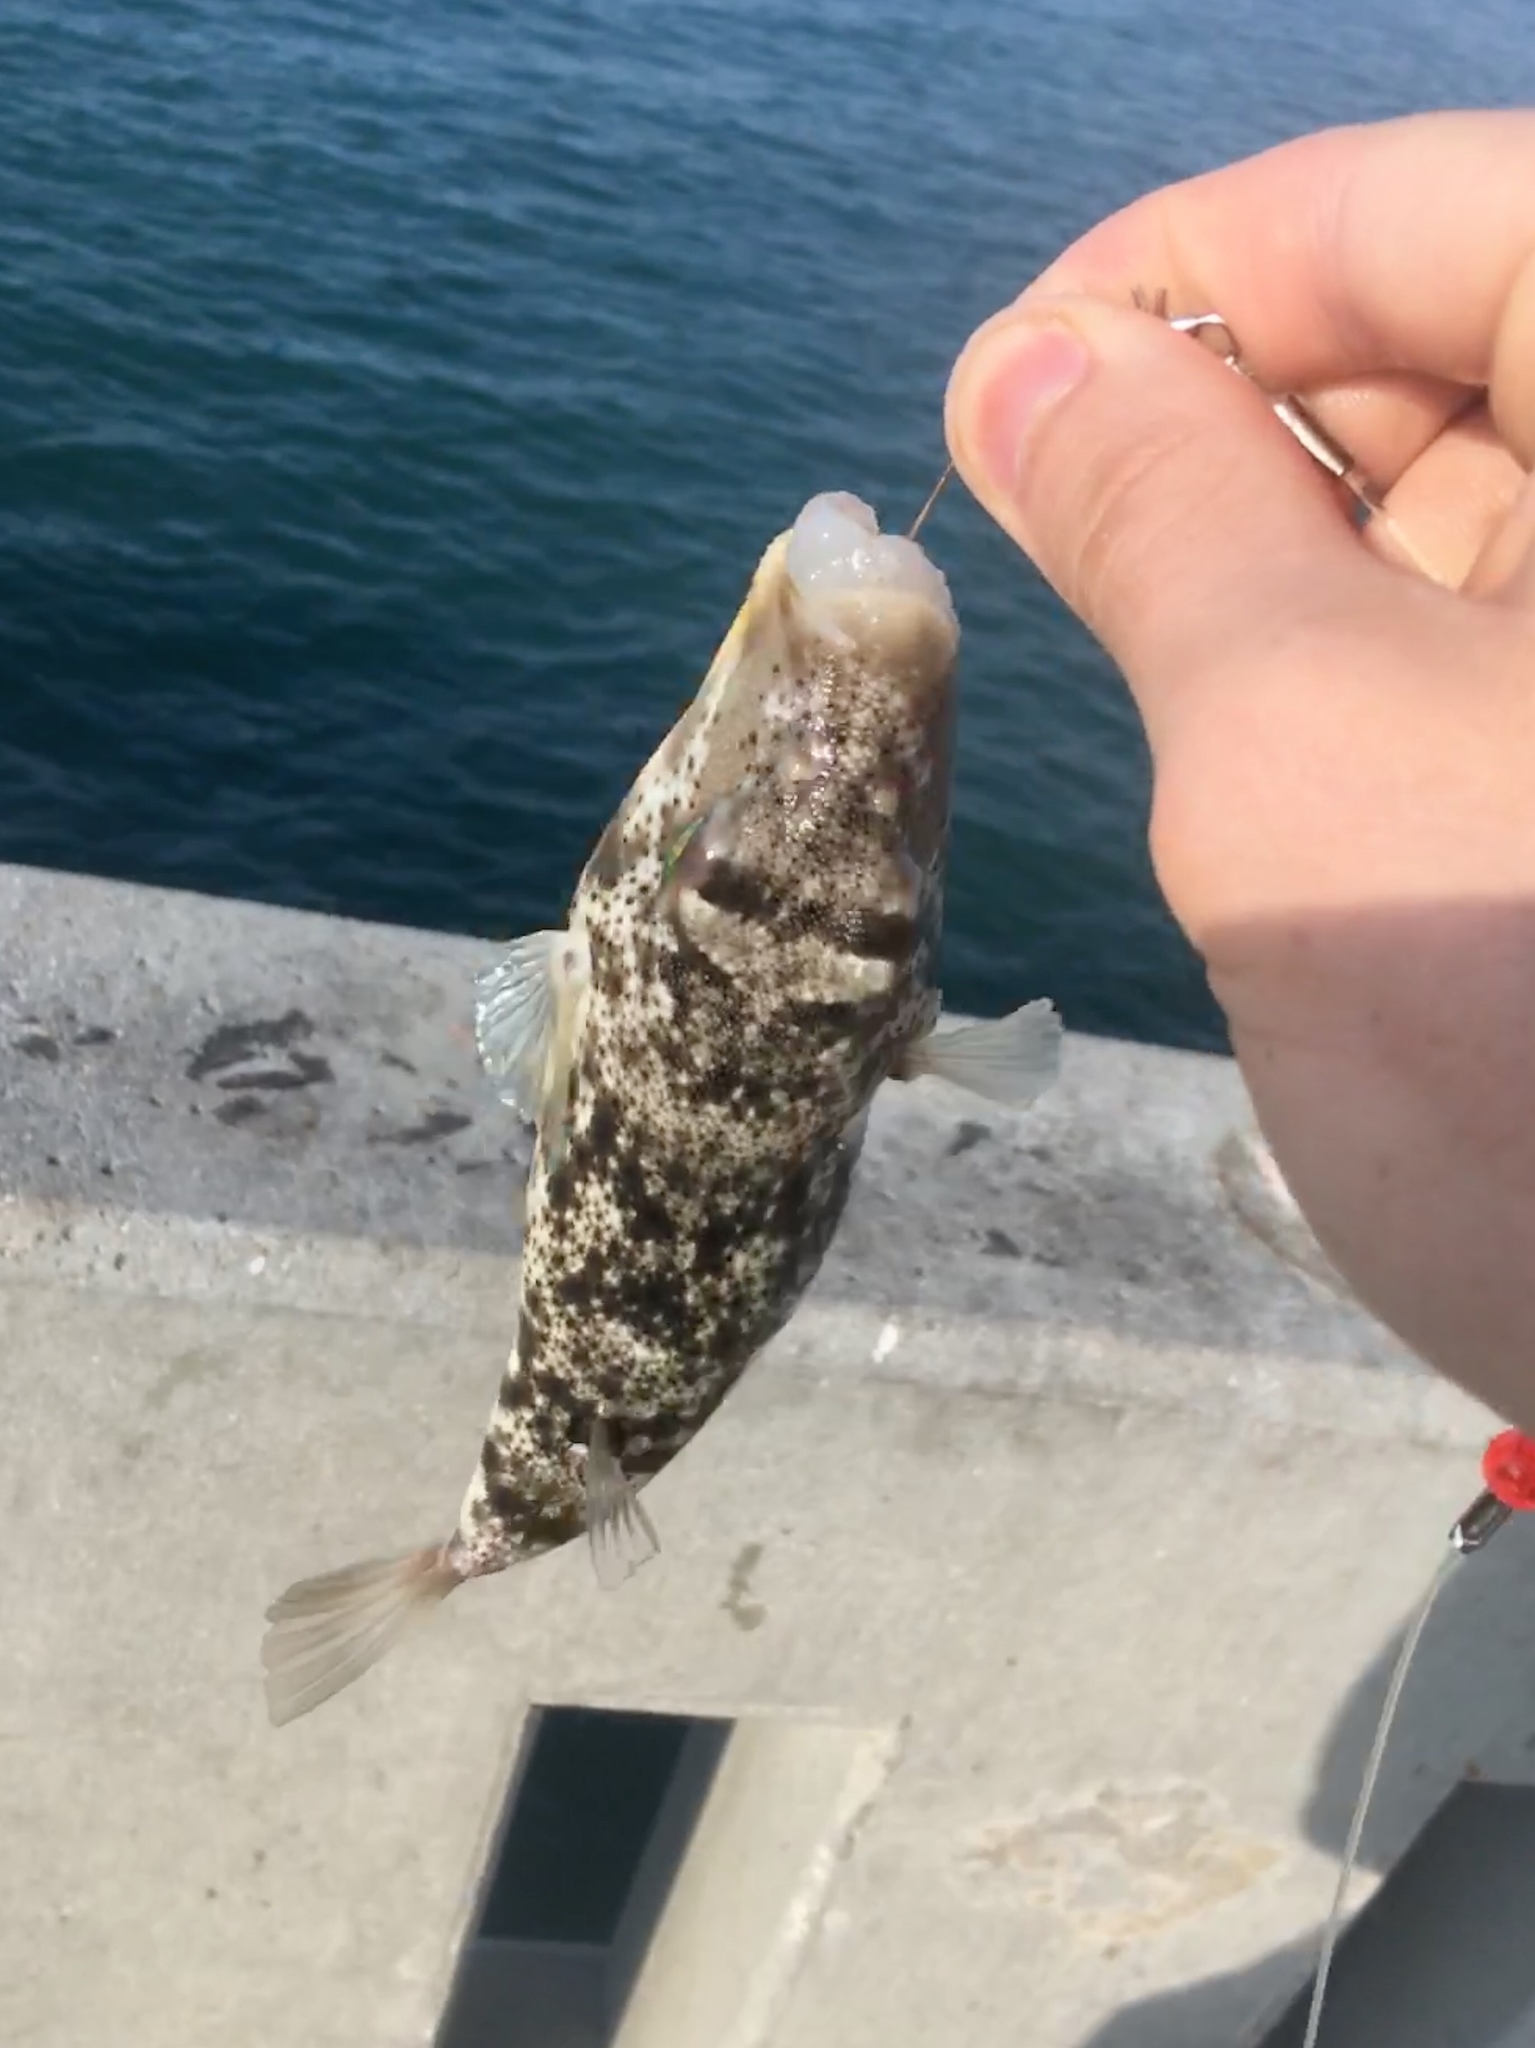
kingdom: Animalia
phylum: Chordata
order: Tetraodontiformes
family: Tetraodontidae
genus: Sphoeroides
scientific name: Sphoeroides maculatus
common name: Northern puffer
